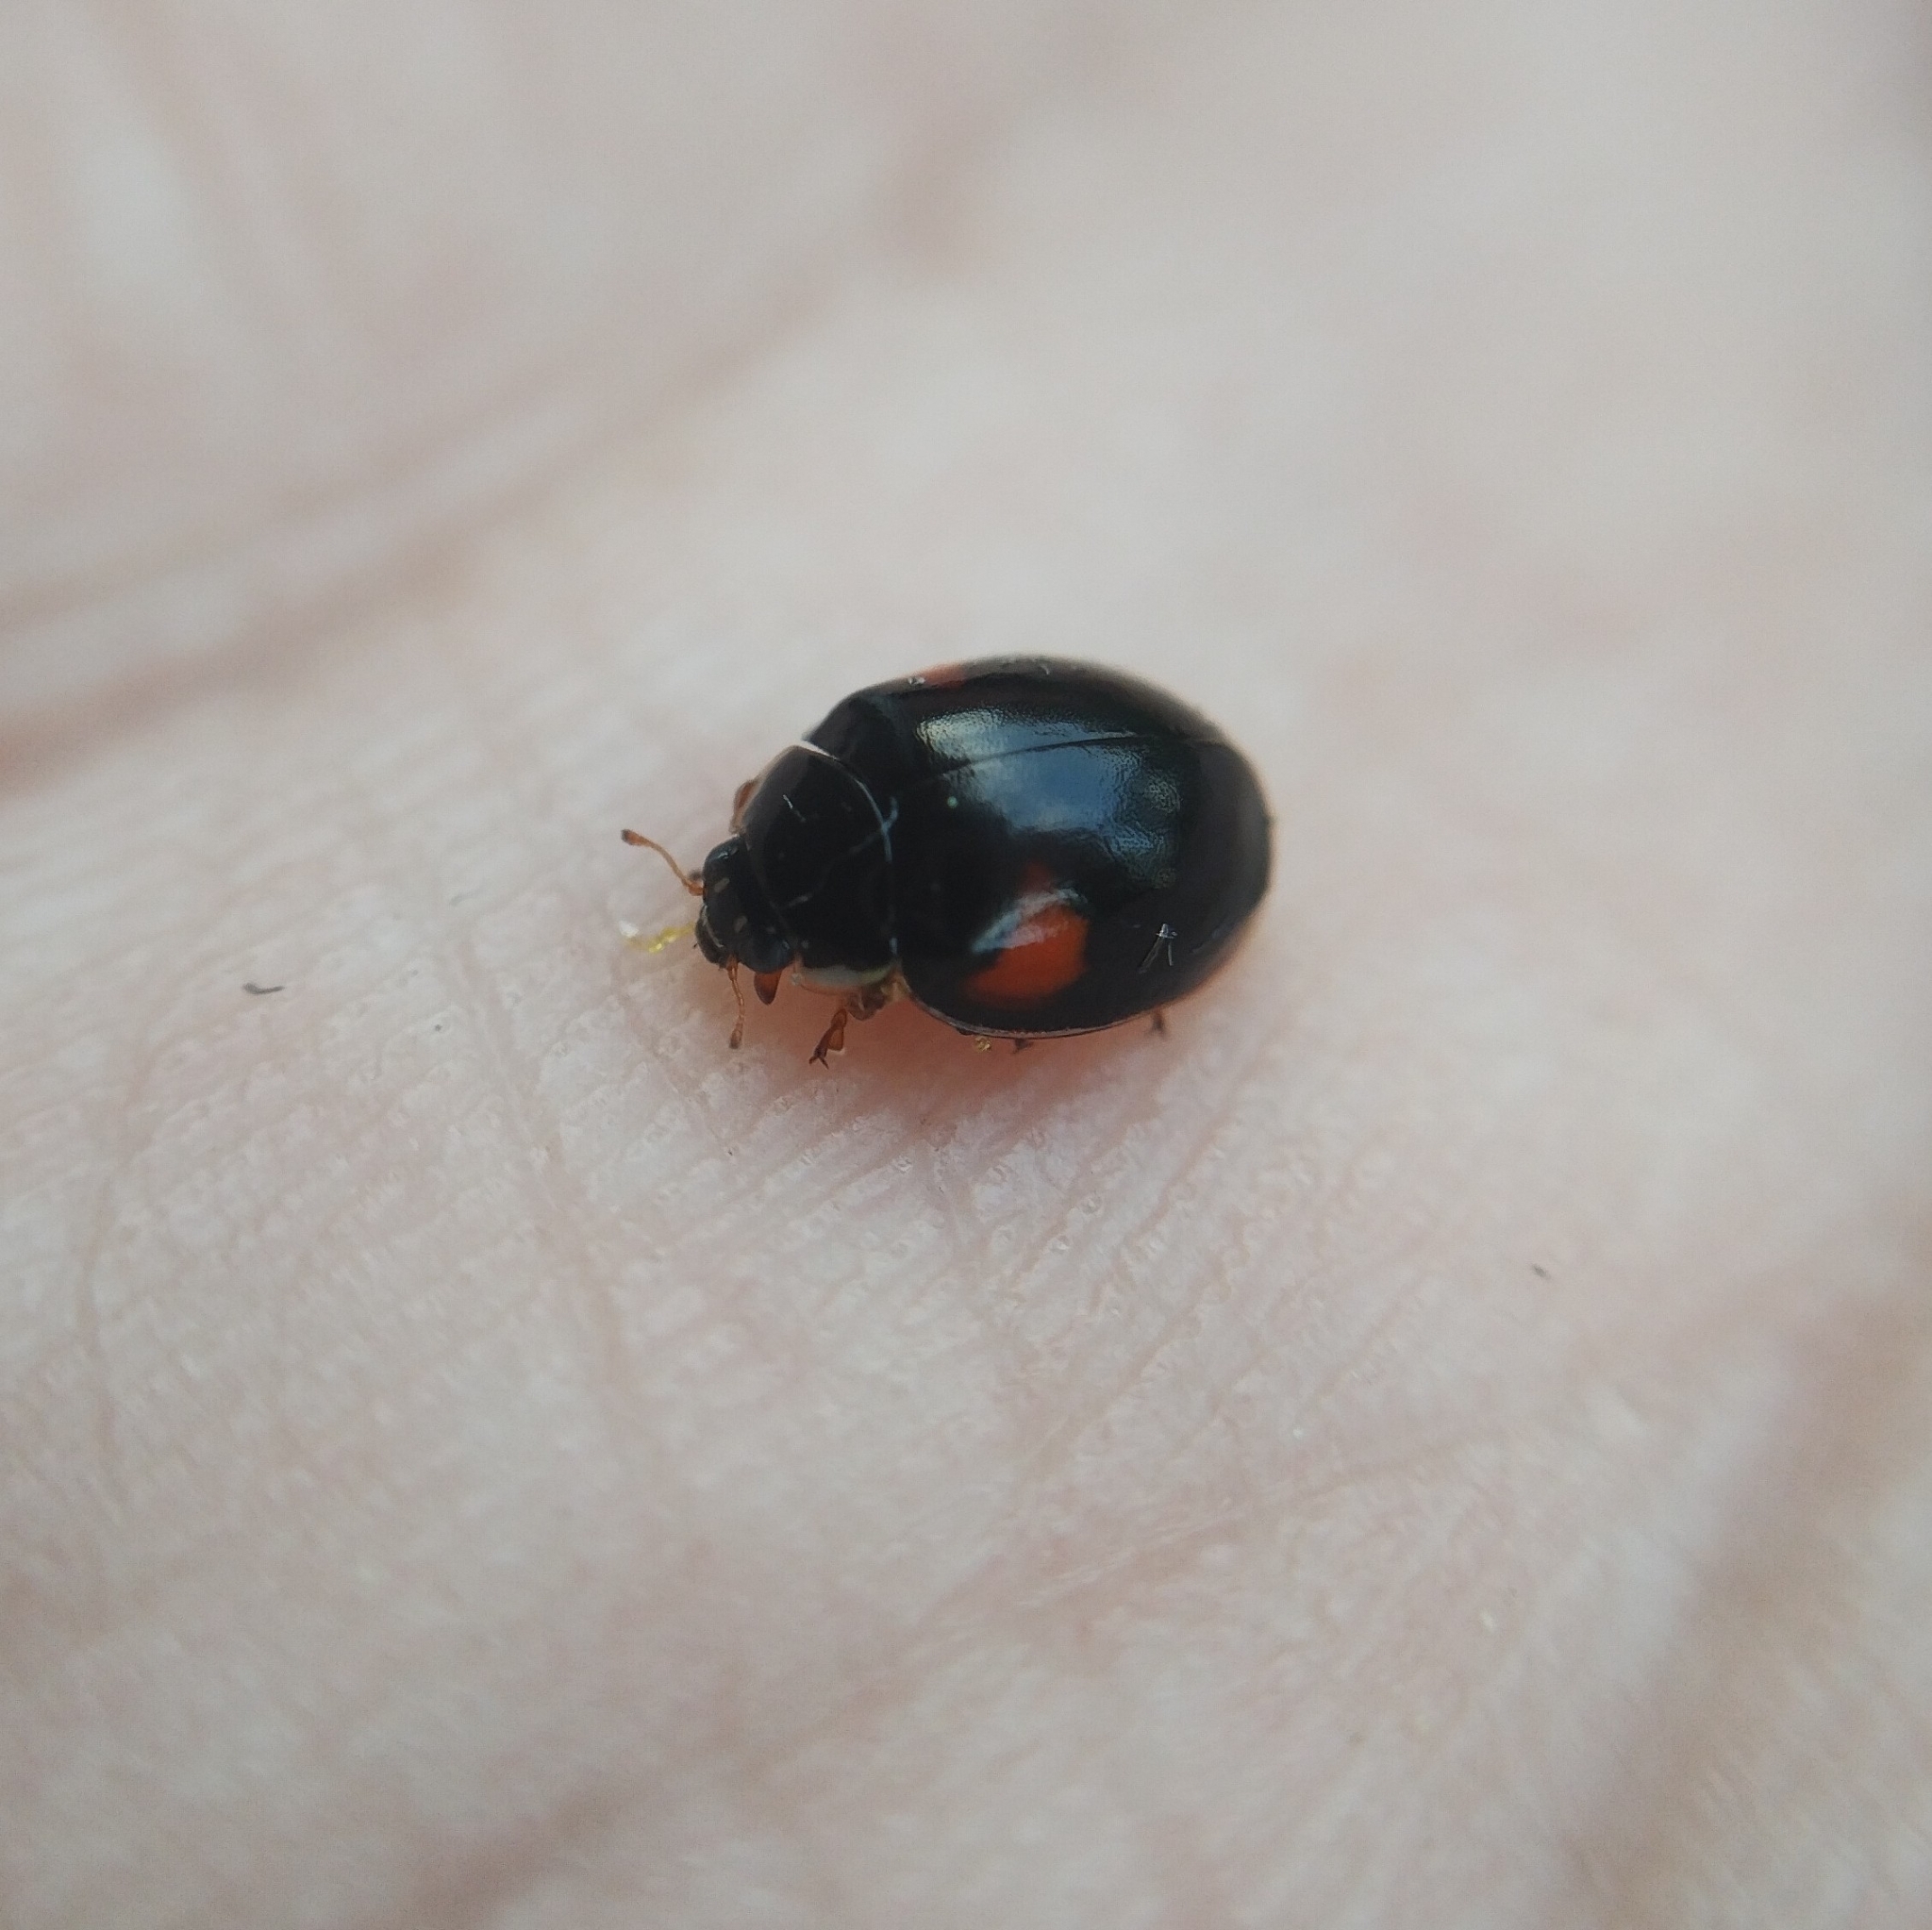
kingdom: Animalia
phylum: Arthropoda
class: Insecta
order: Coleoptera
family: Coccinellidae
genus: Adalia
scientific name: Adalia decempunctata
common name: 10-spot ladybird
